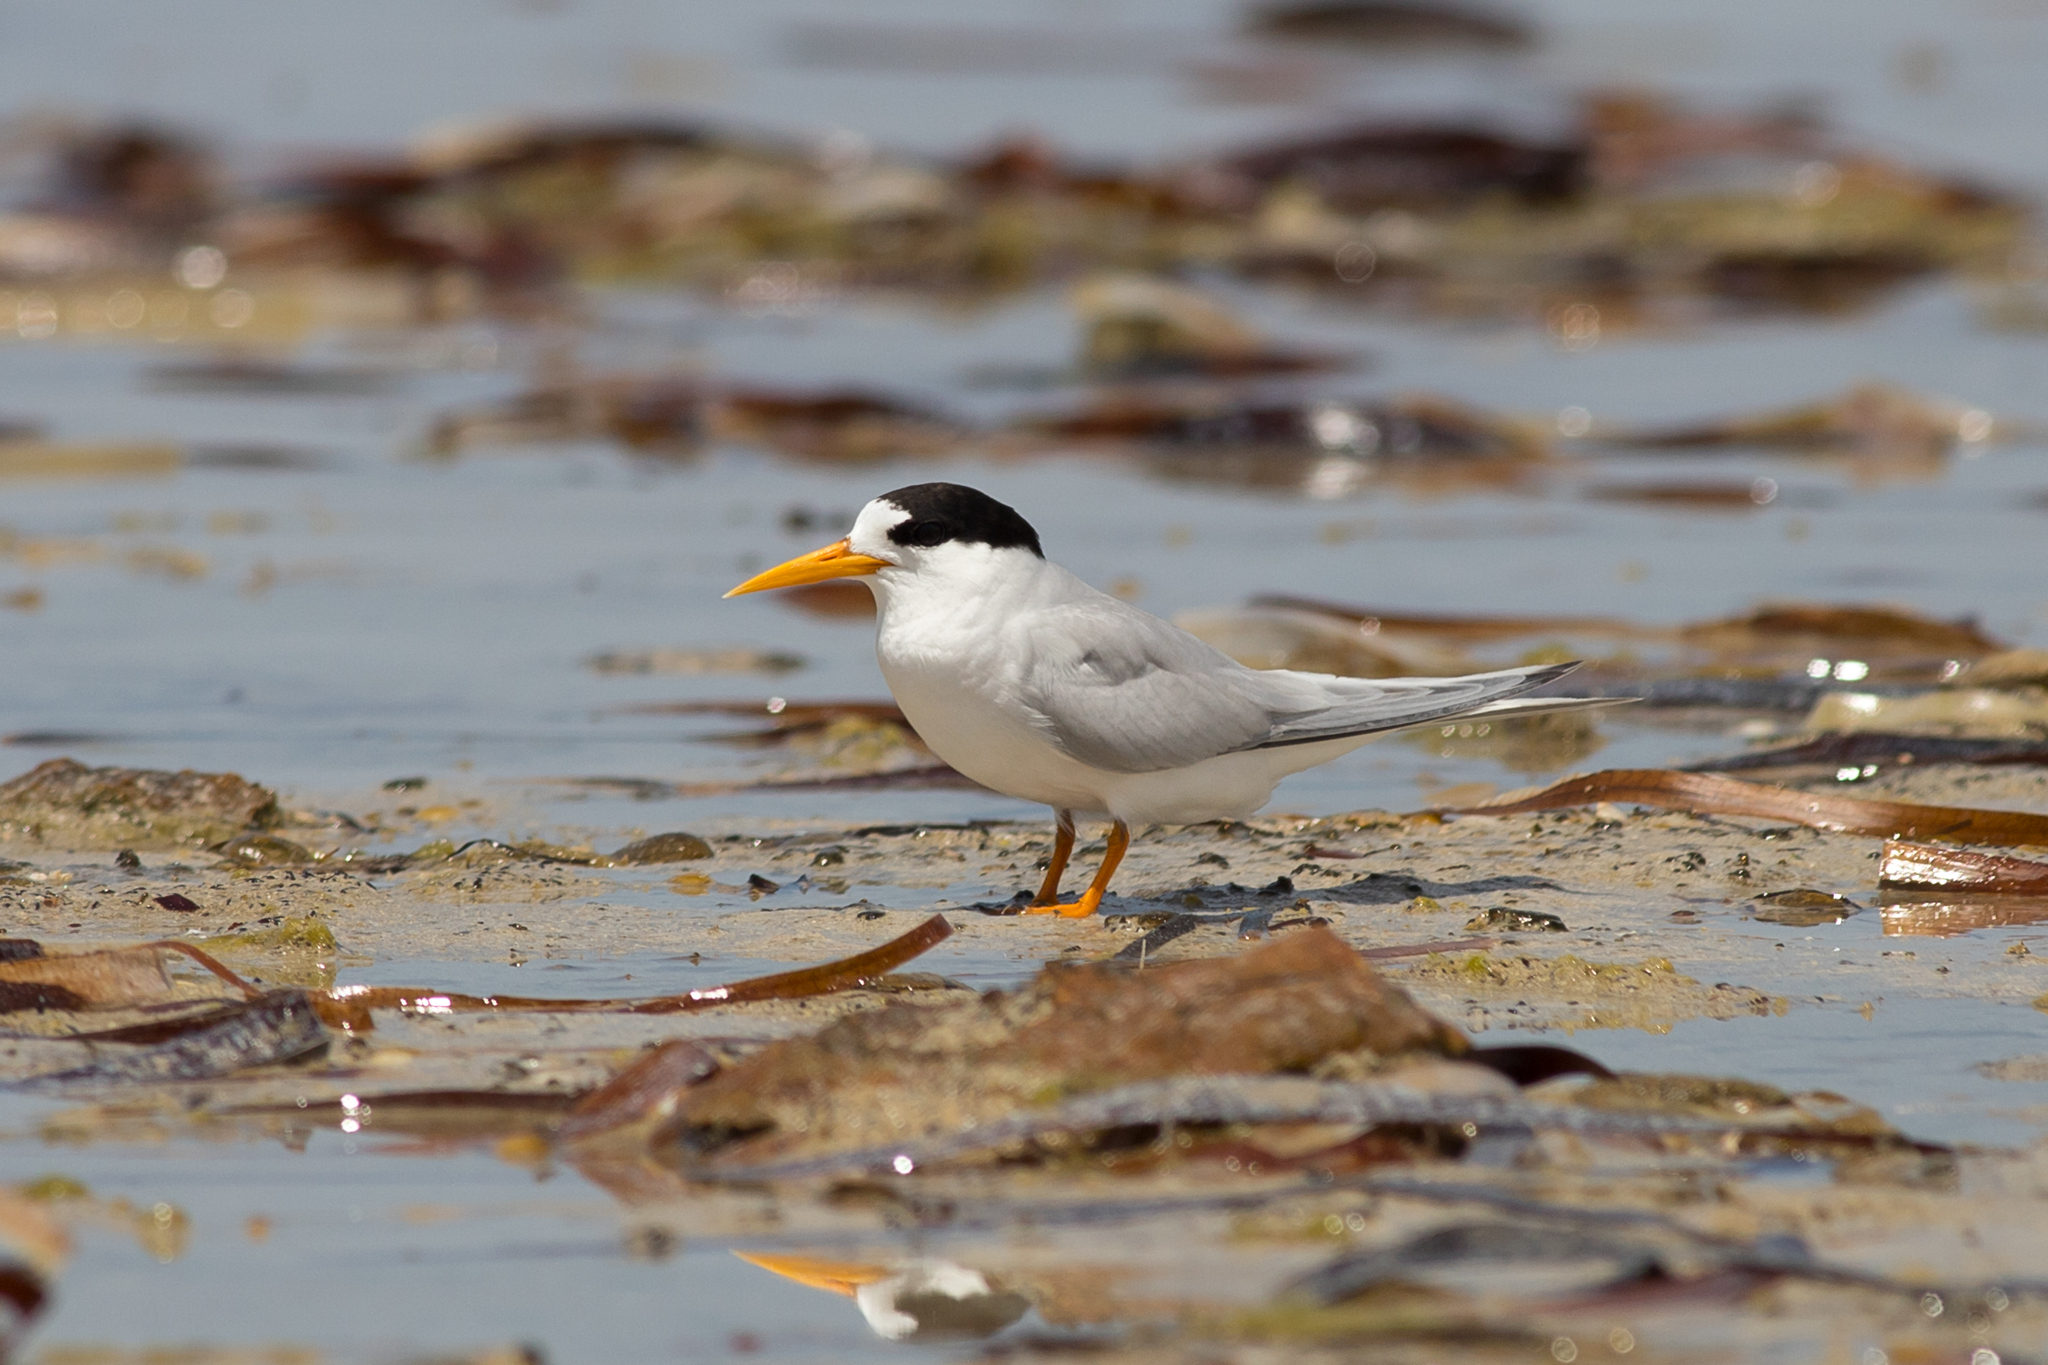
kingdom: Animalia
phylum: Chordata
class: Aves
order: Charadriiformes
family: Laridae
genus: Sternula
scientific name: Sternula nereis
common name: Fairy tern
